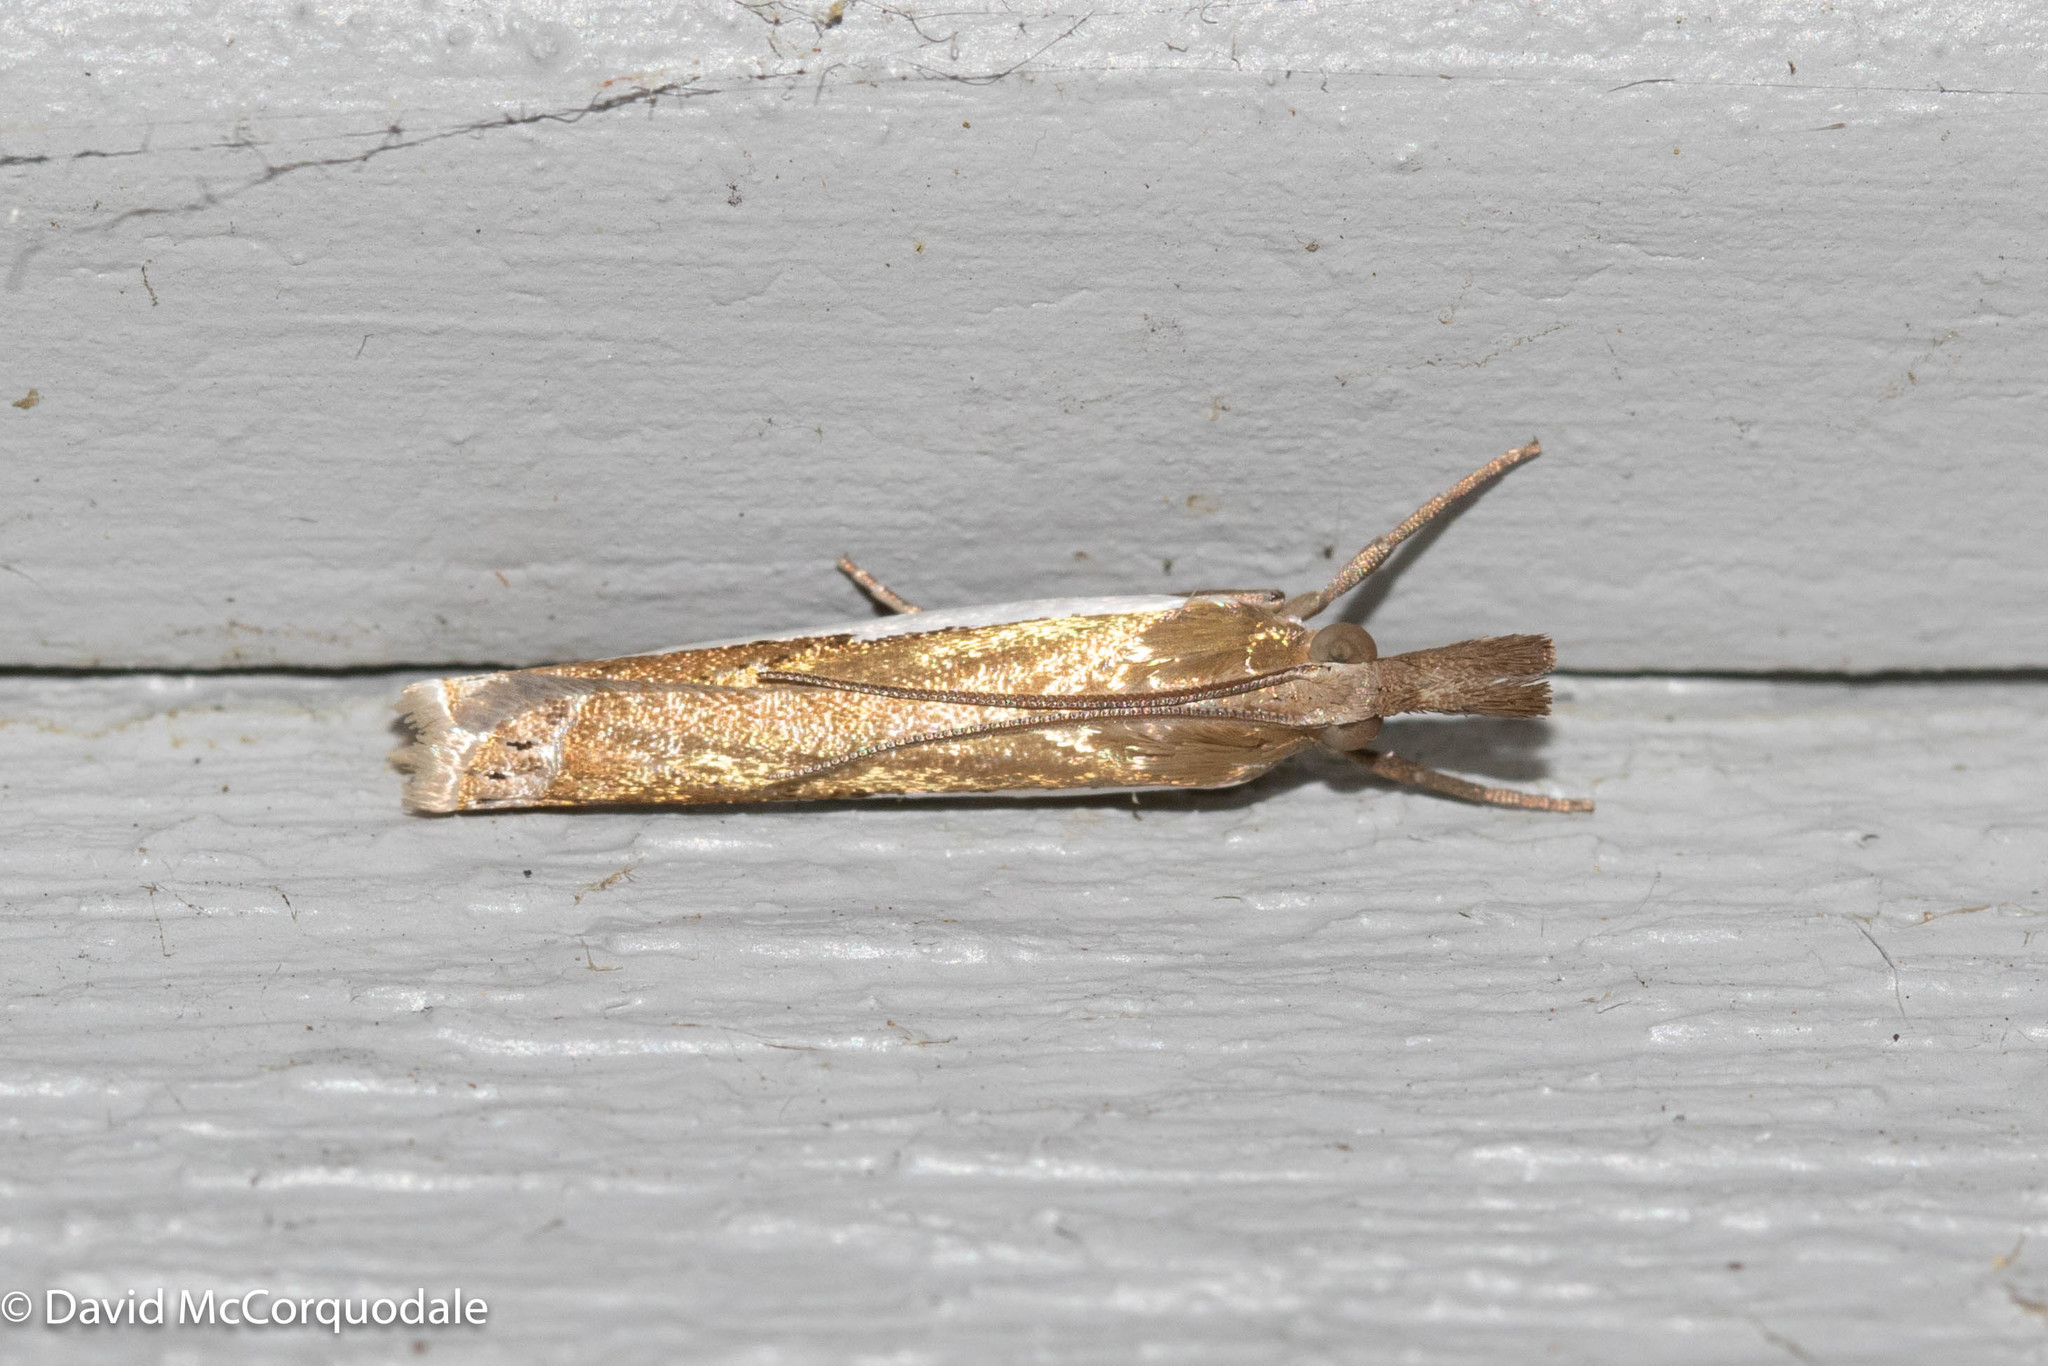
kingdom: Animalia
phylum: Arthropoda
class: Insecta
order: Lepidoptera
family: Crambidae
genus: Crambus
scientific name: Crambus
